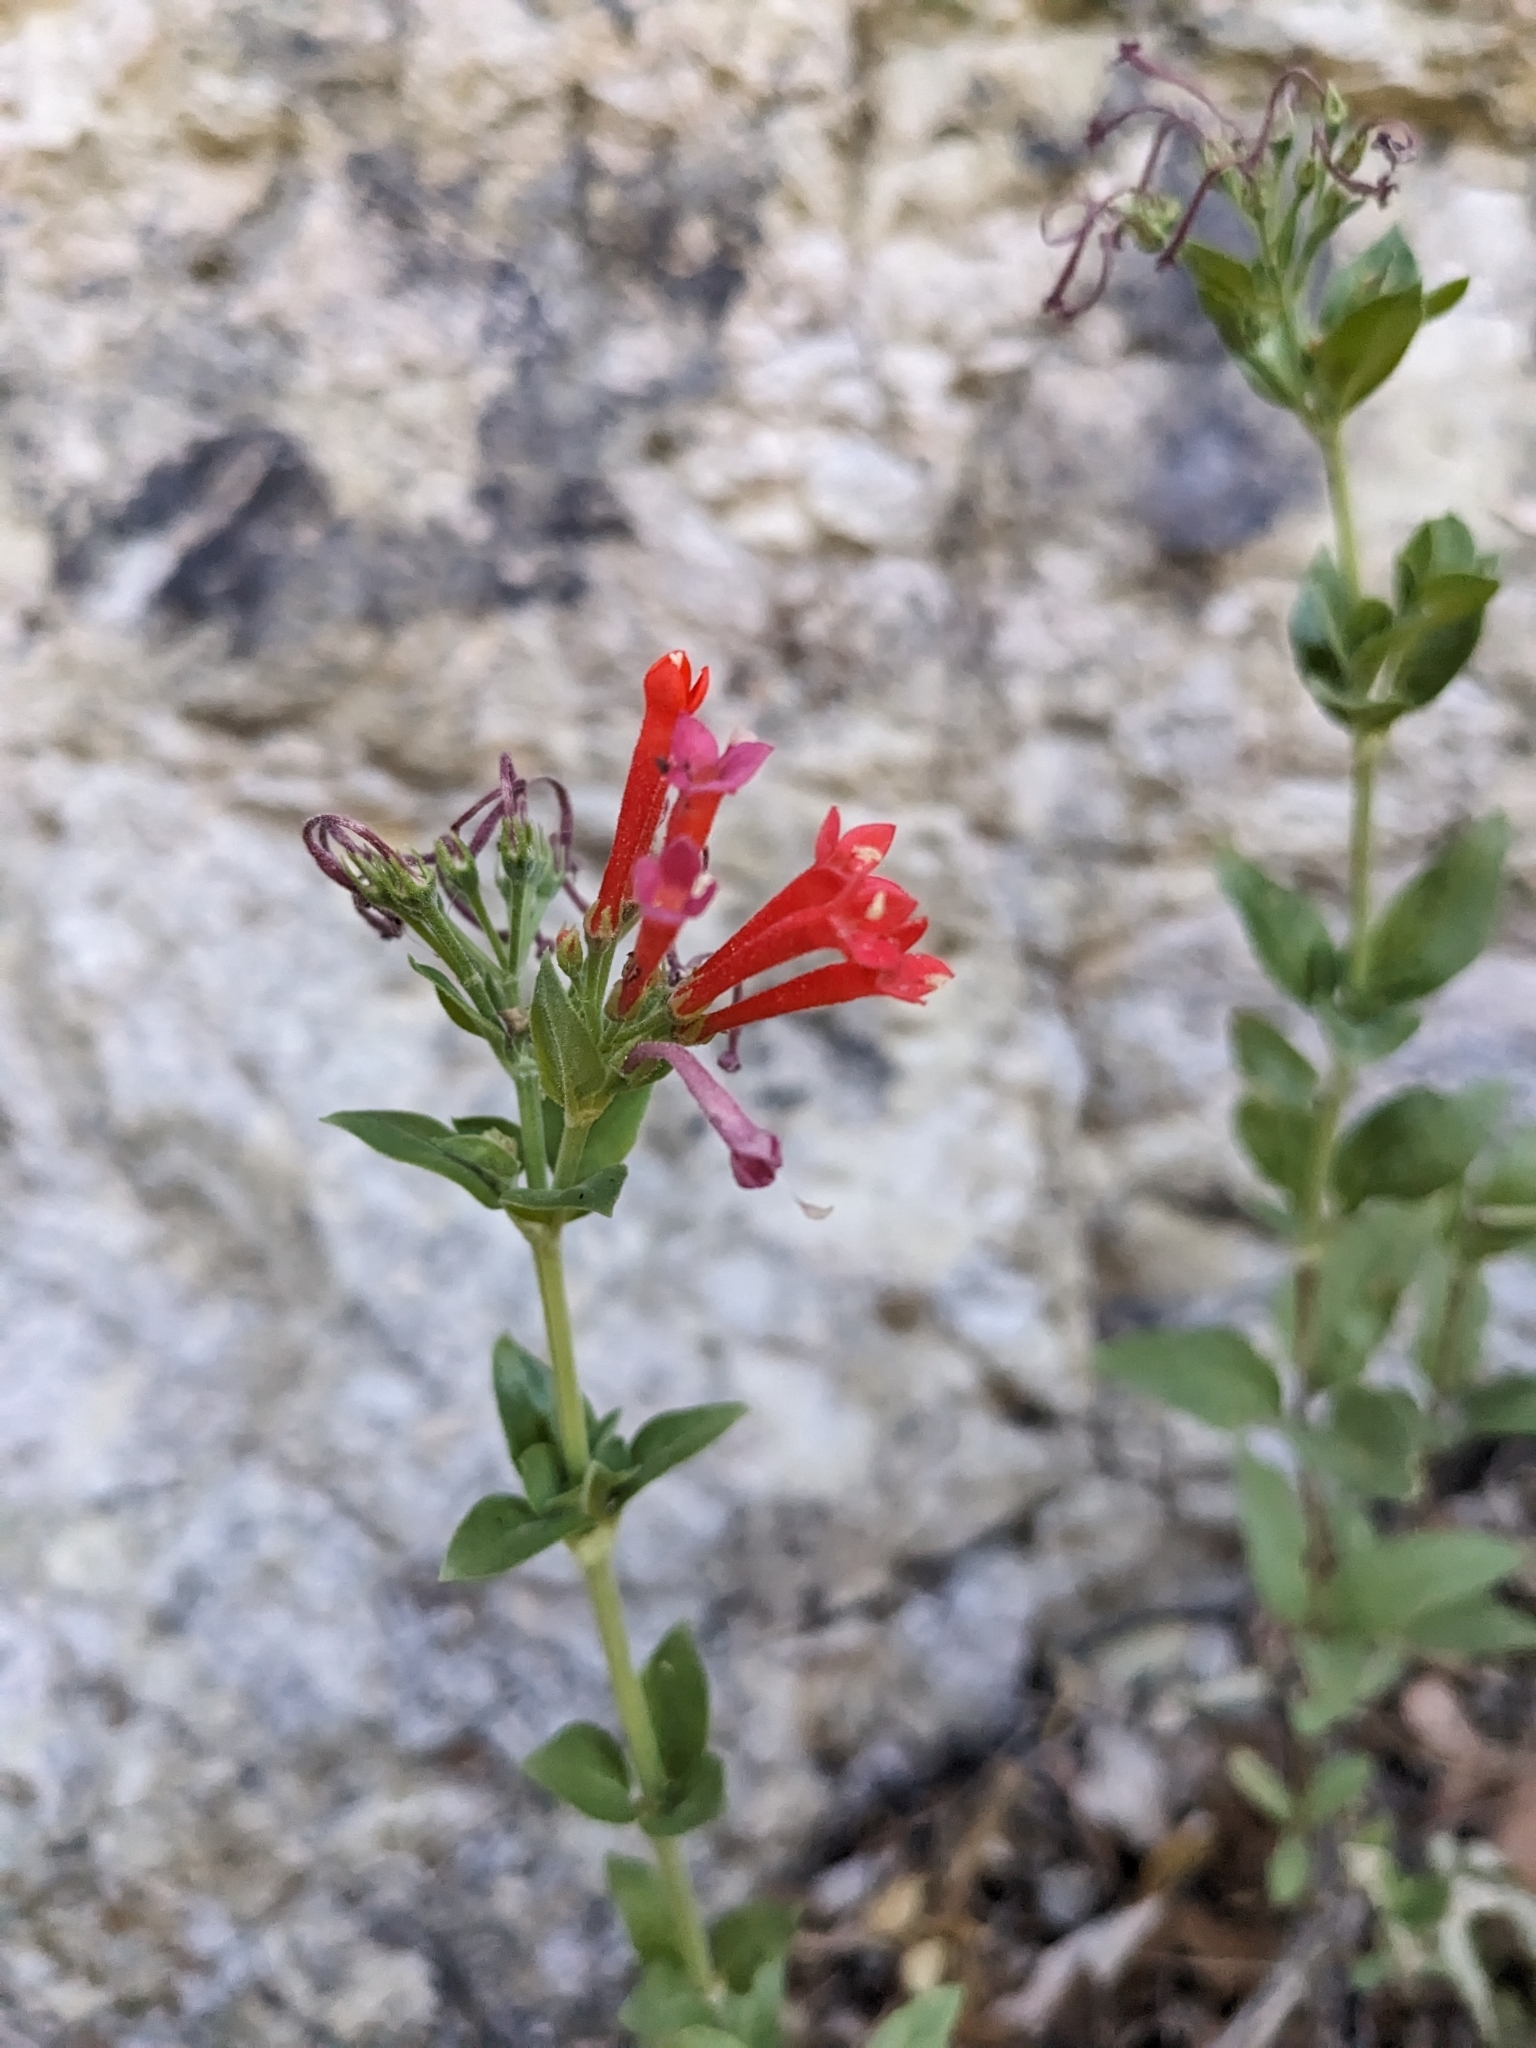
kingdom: Plantae
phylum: Tracheophyta
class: Magnoliopsida
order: Gentianales
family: Rubiaceae
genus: Bouvardia
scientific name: Bouvardia ternifolia
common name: Scarlet bouvardia
